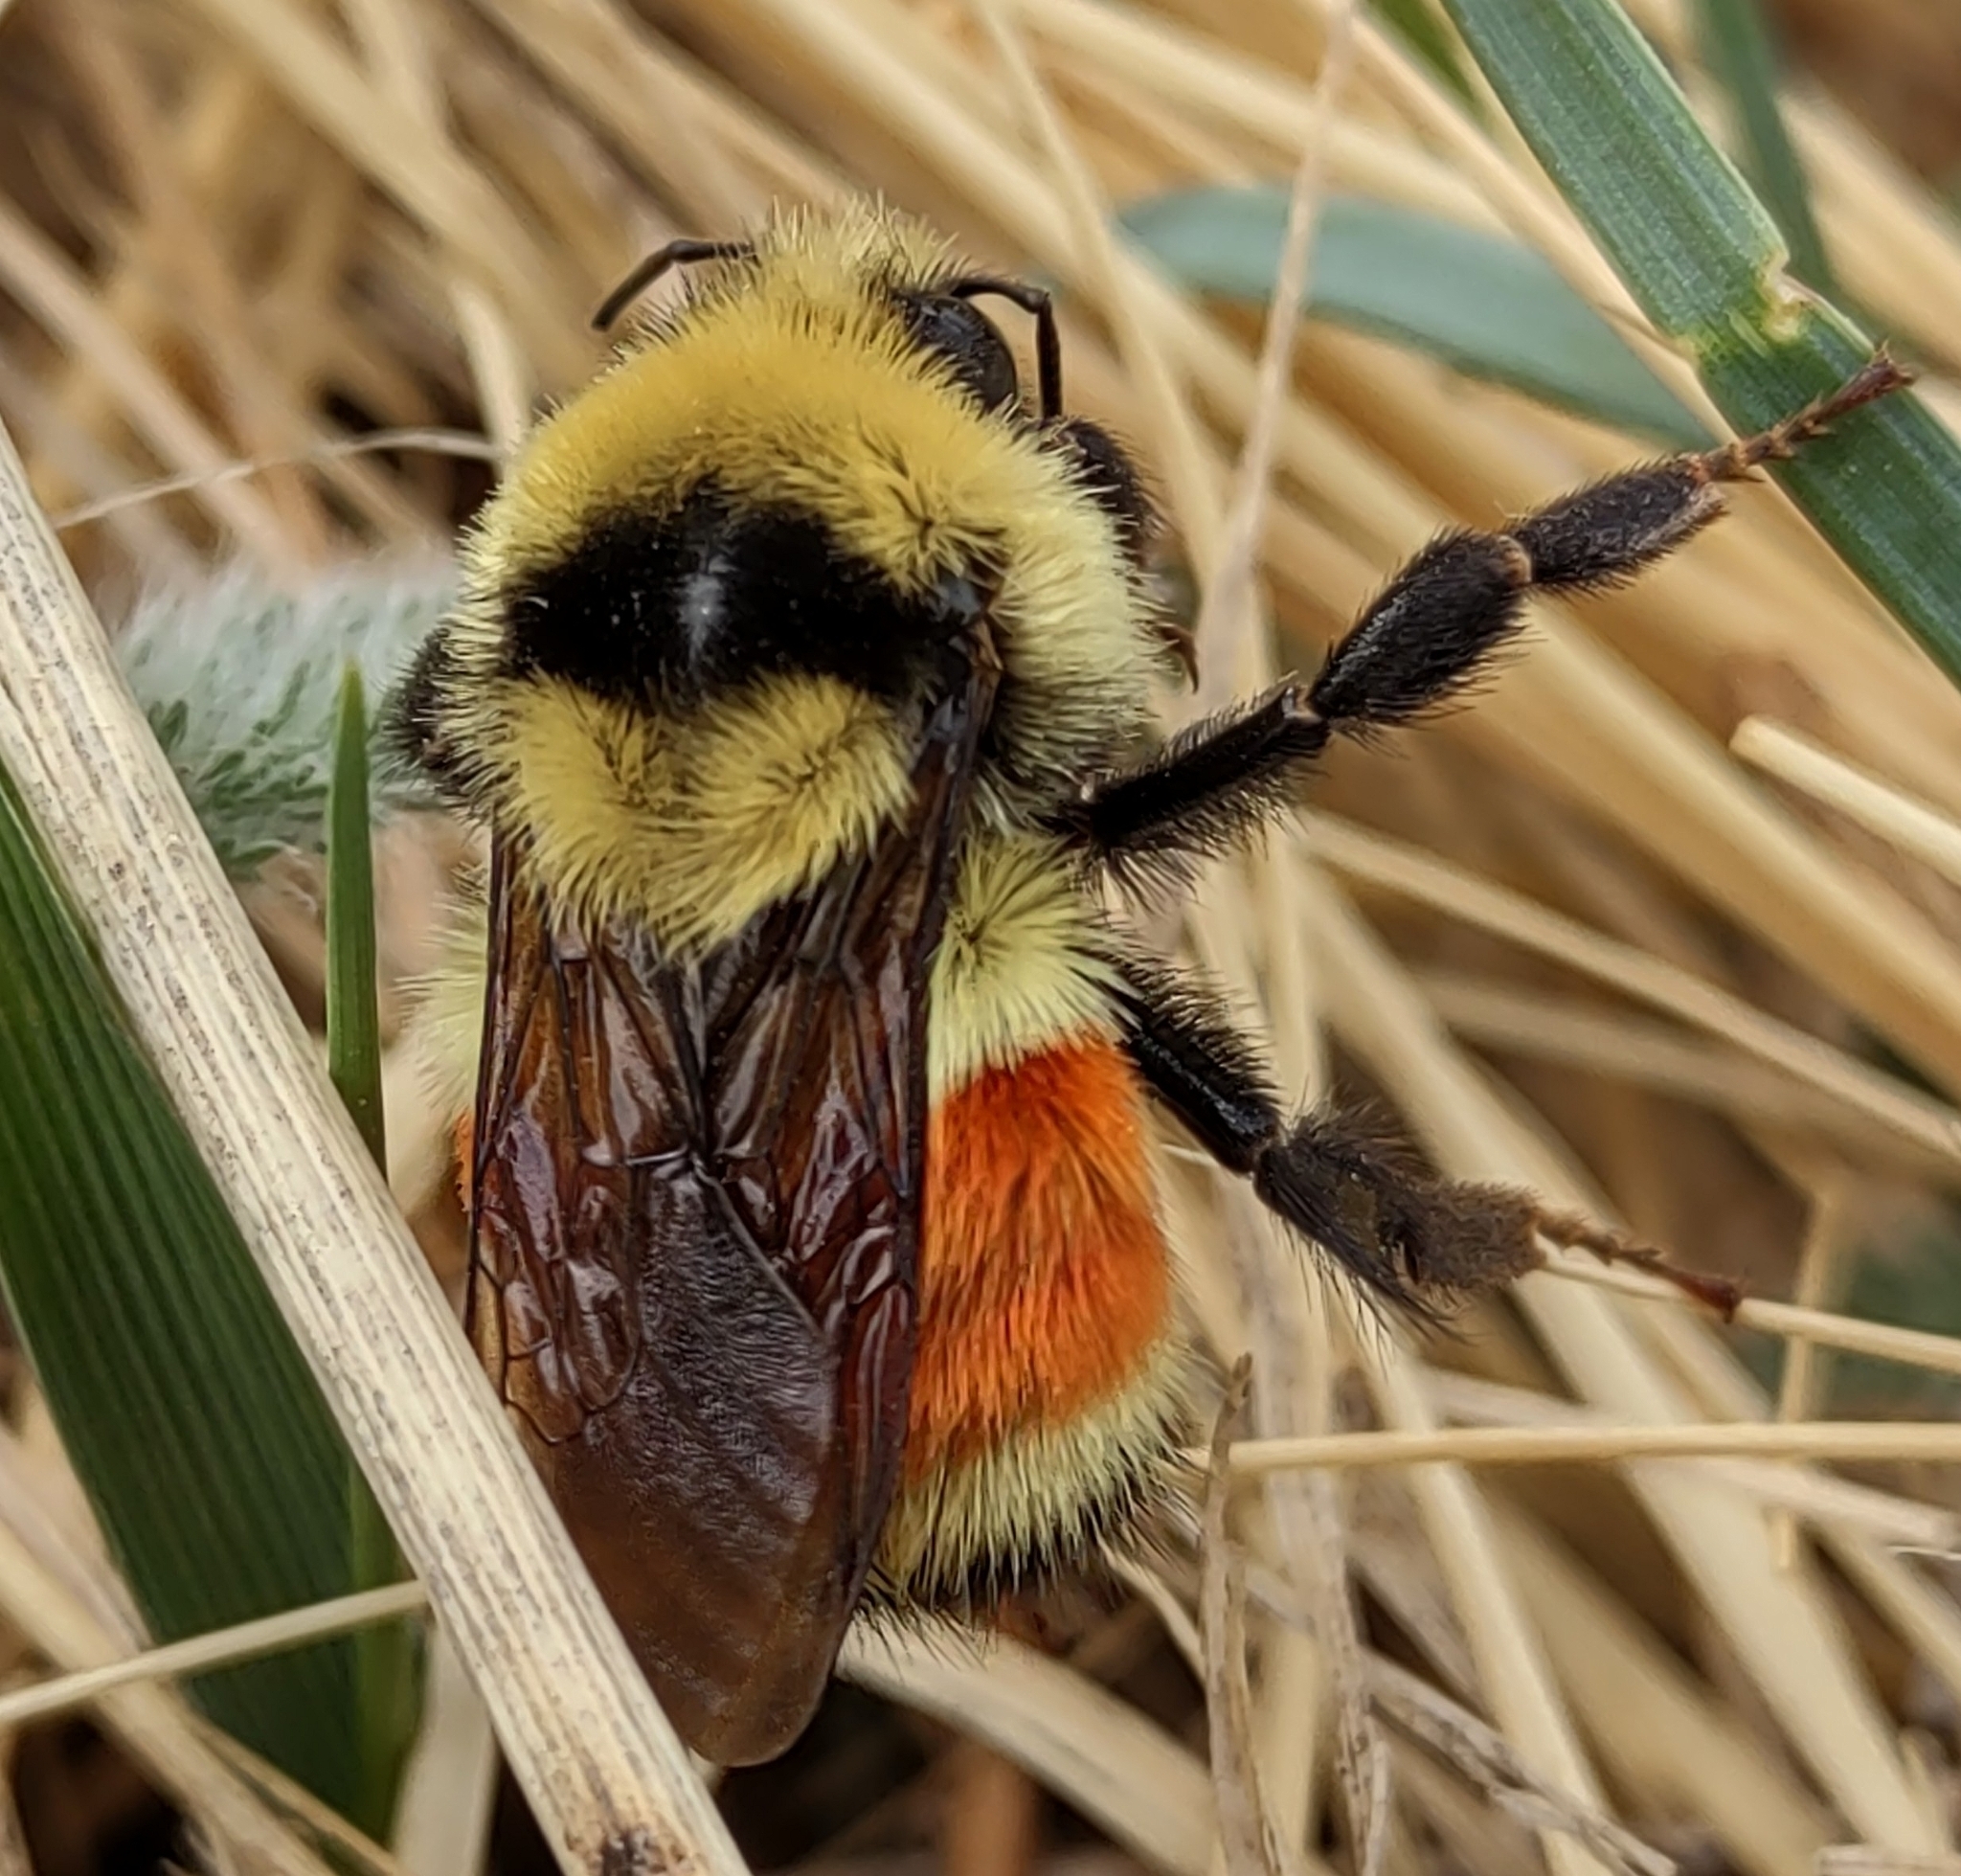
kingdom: Animalia
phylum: Arthropoda
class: Insecta
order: Hymenoptera
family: Apidae
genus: Bombus
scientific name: Bombus huntii
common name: Hunt bumble bee
